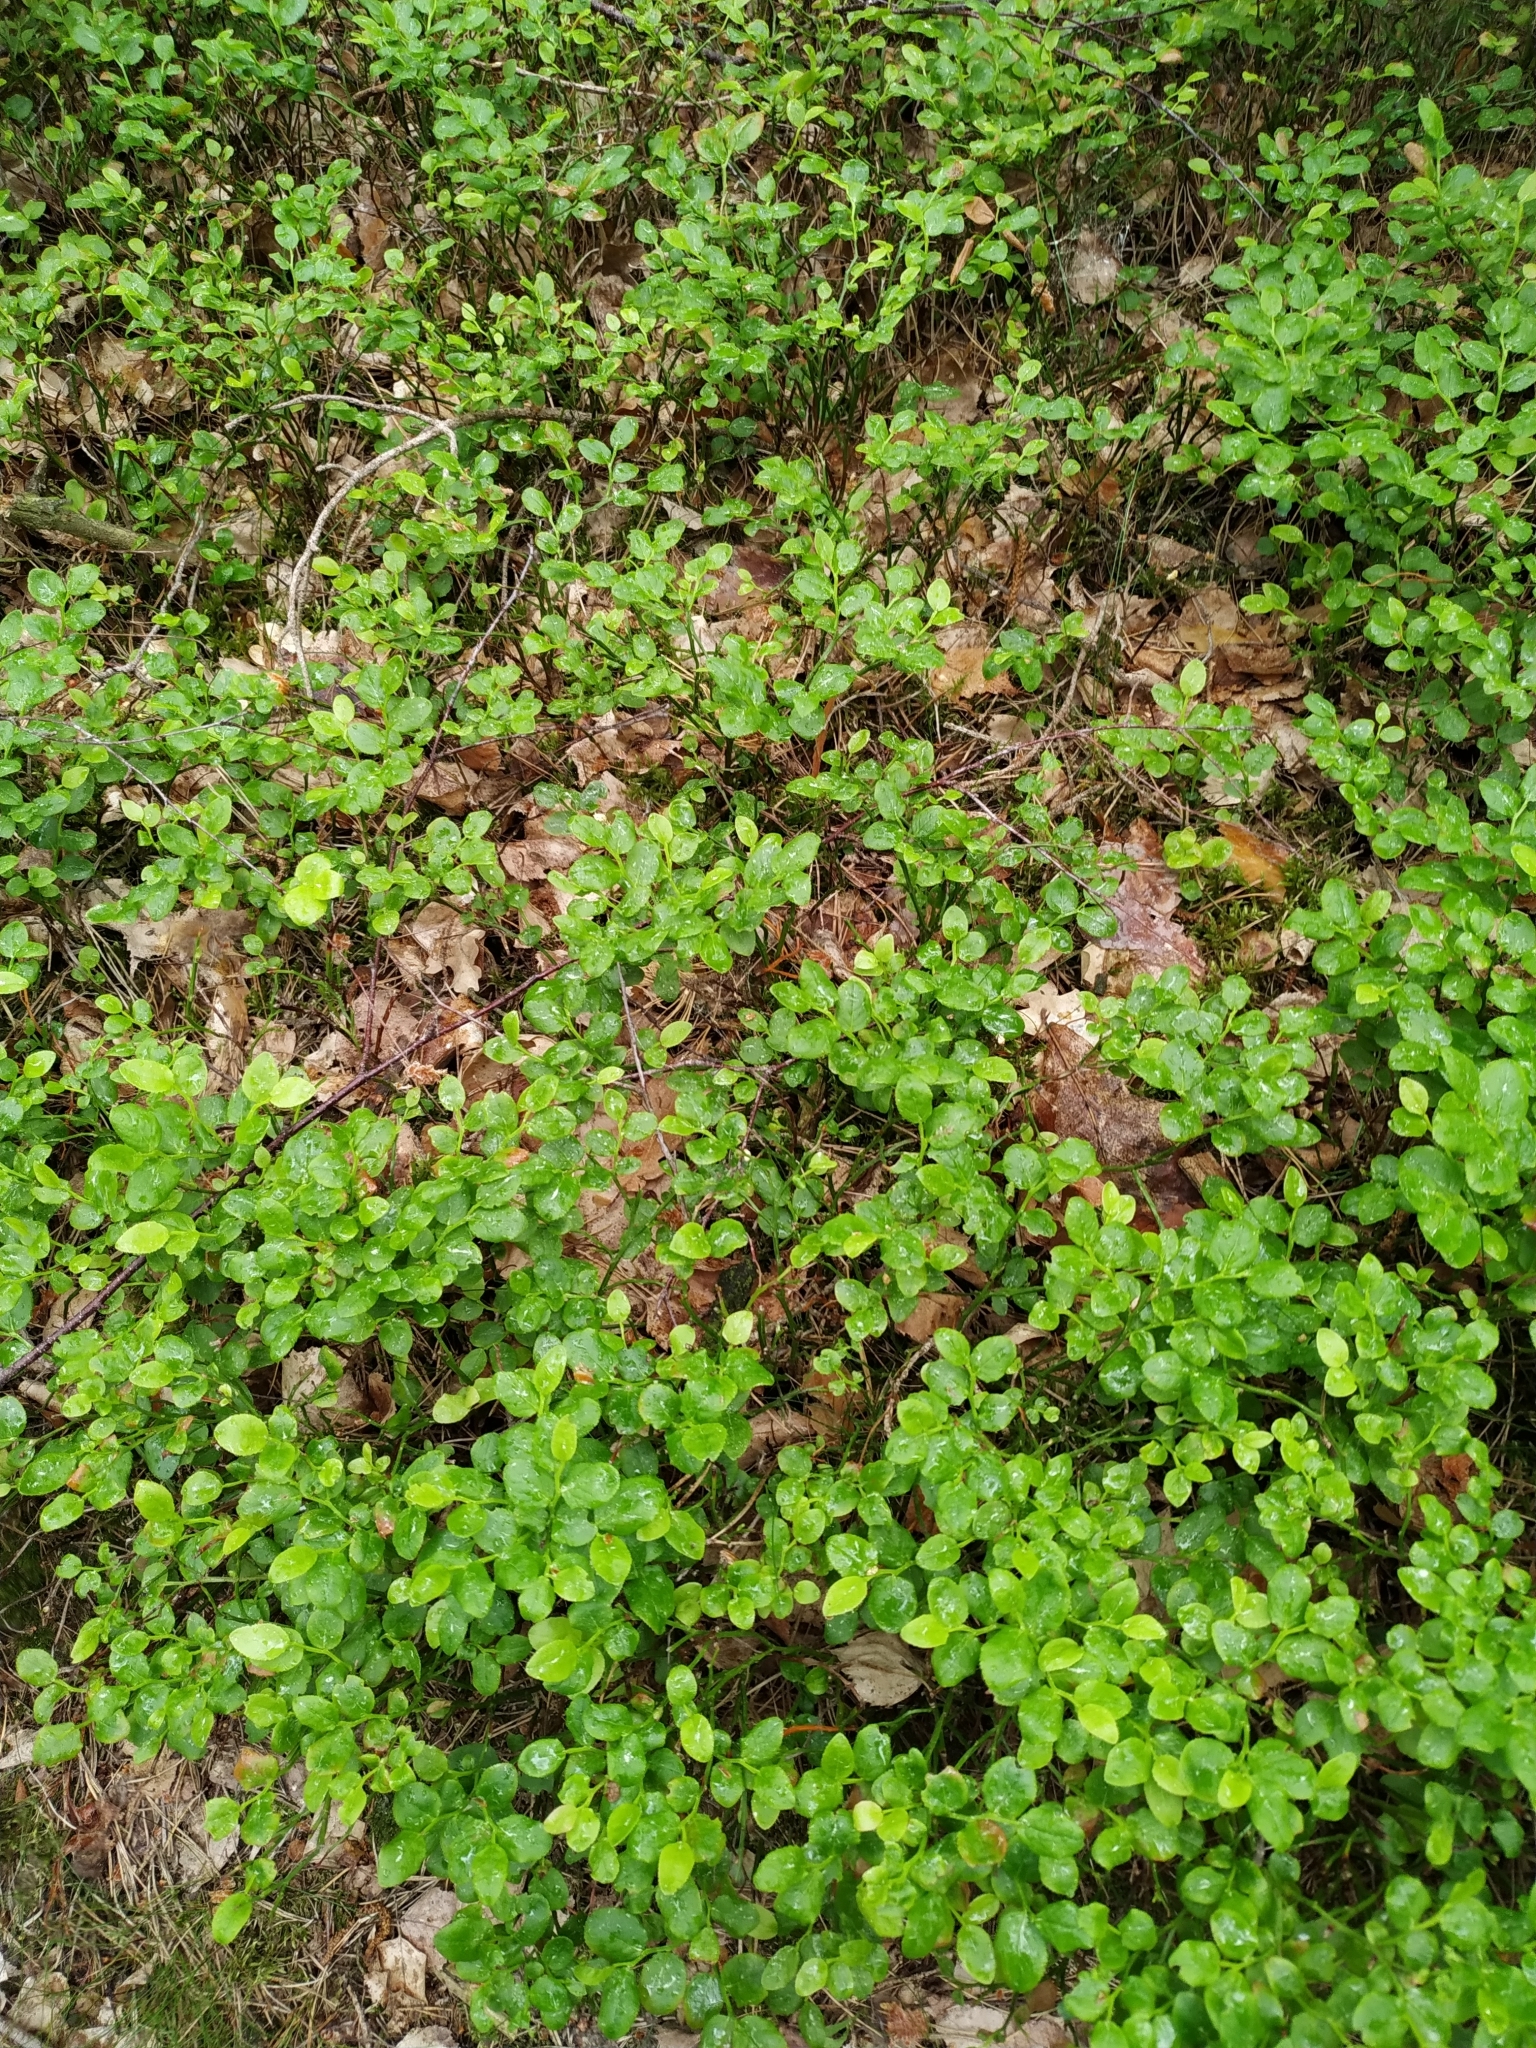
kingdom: Plantae
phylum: Tracheophyta
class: Magnoliopsida
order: Ericales
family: Ericaceae
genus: Vaccinium
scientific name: Vaccinium myrtillus
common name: Bilberry
